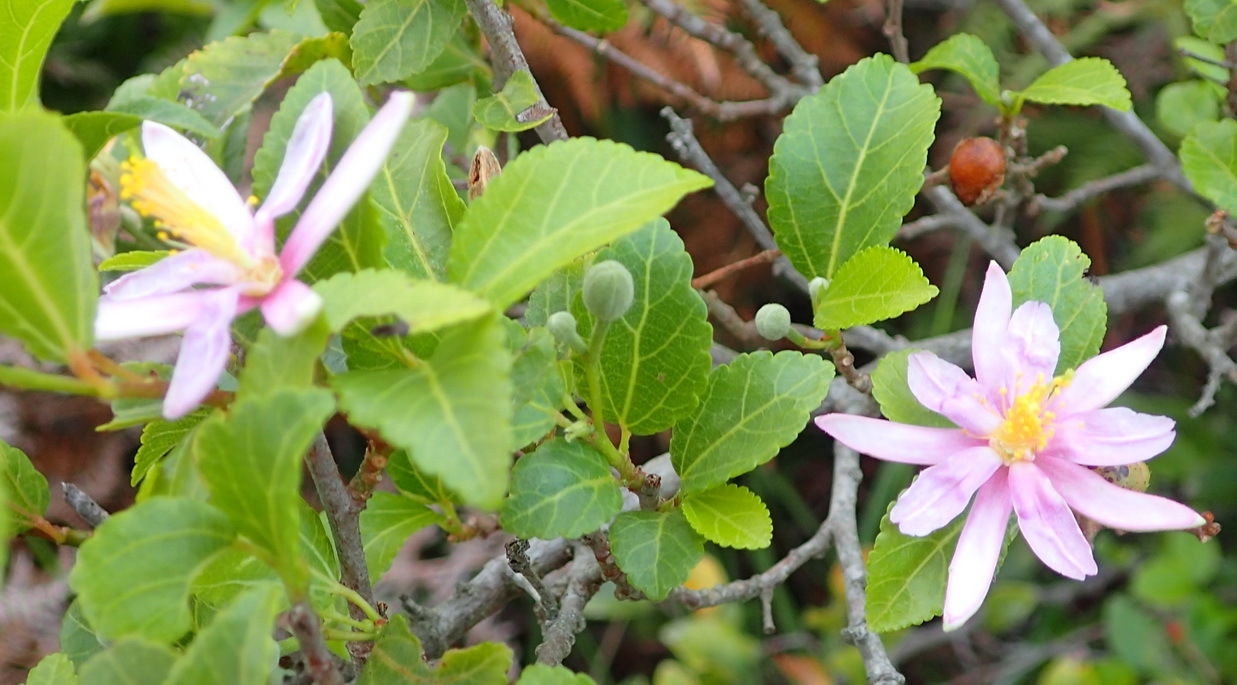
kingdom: Plantae
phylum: Tracheophyta
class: Magnoliopsida
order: Malvales
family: Malvaceae
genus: Grewia
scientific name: Grewia occidentalis
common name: Crossberry
